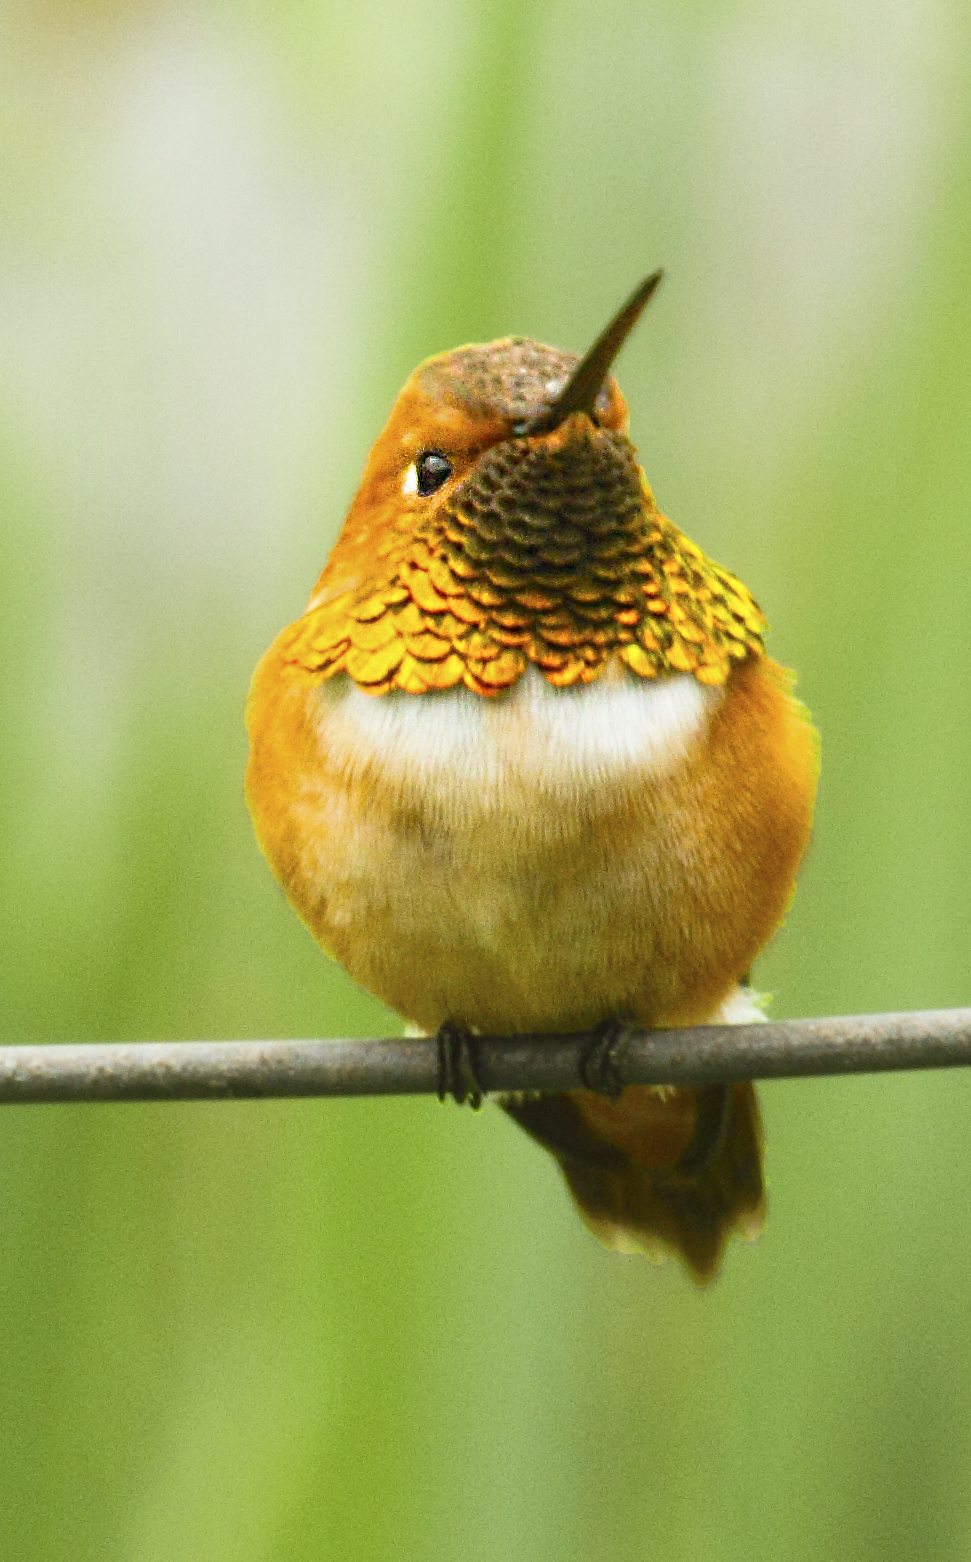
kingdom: Animalia
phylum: Chordata
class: Aves
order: Apodiformes
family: Trochilidae
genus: Selasphorus
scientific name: Selasphorus rufus
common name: Rufous hummingbird
